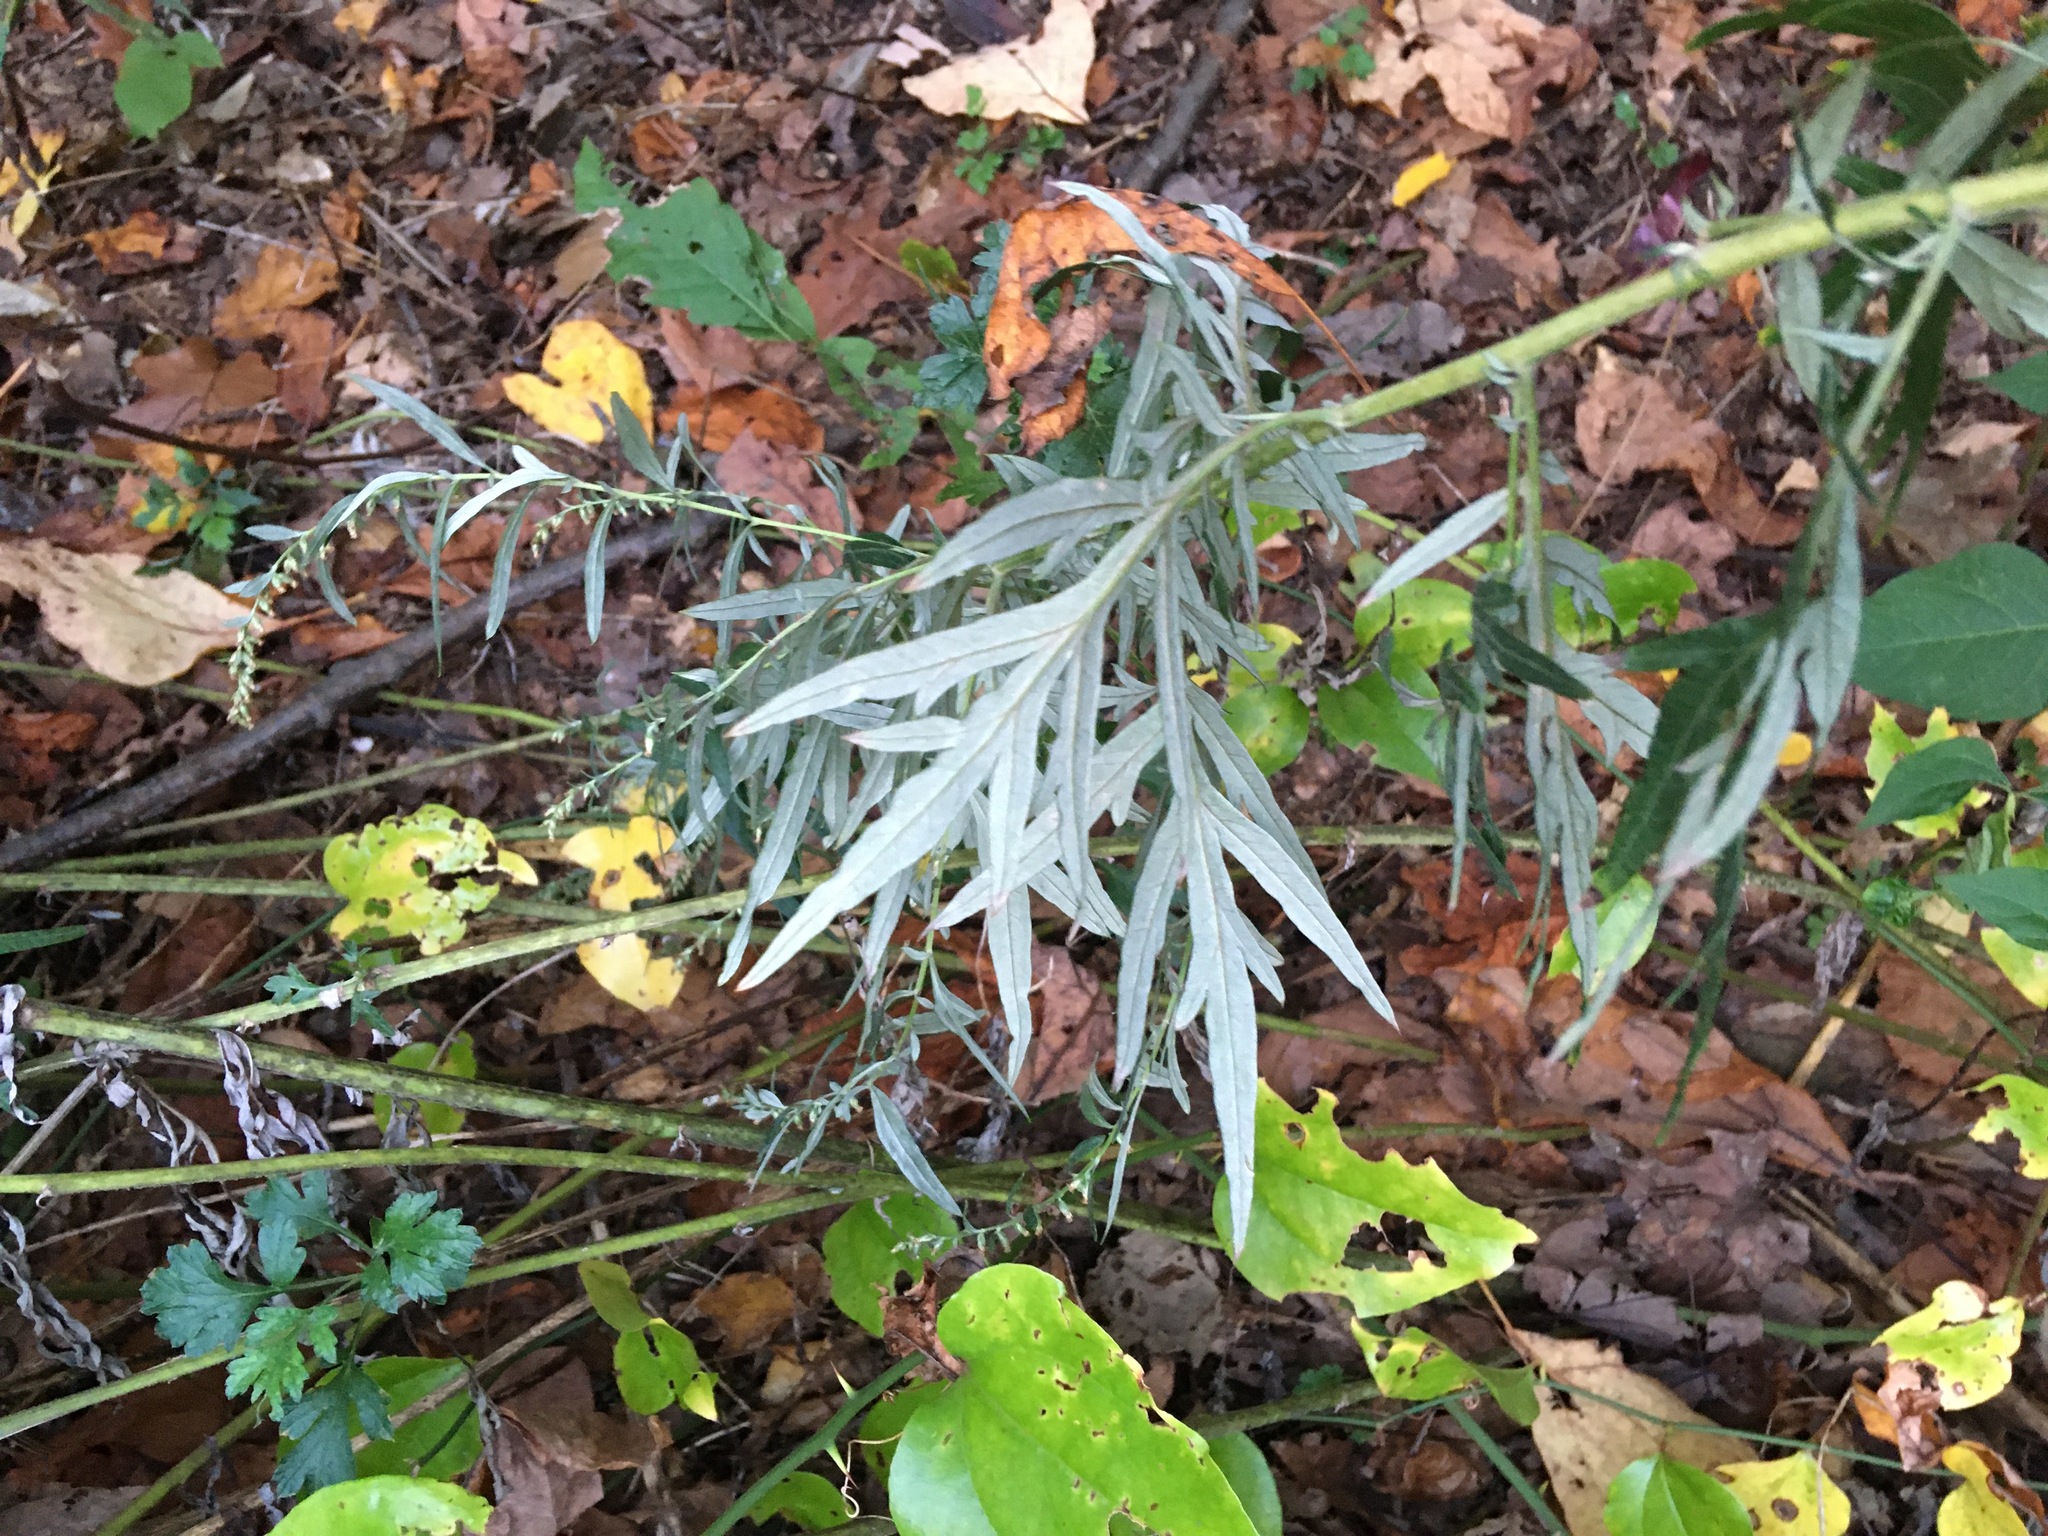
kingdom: Plantae
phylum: Tracheophyta
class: Magnoliopsida
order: Asterales
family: Asteraceae
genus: Artemisia
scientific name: Artemisia vulgaris
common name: Mugwort
